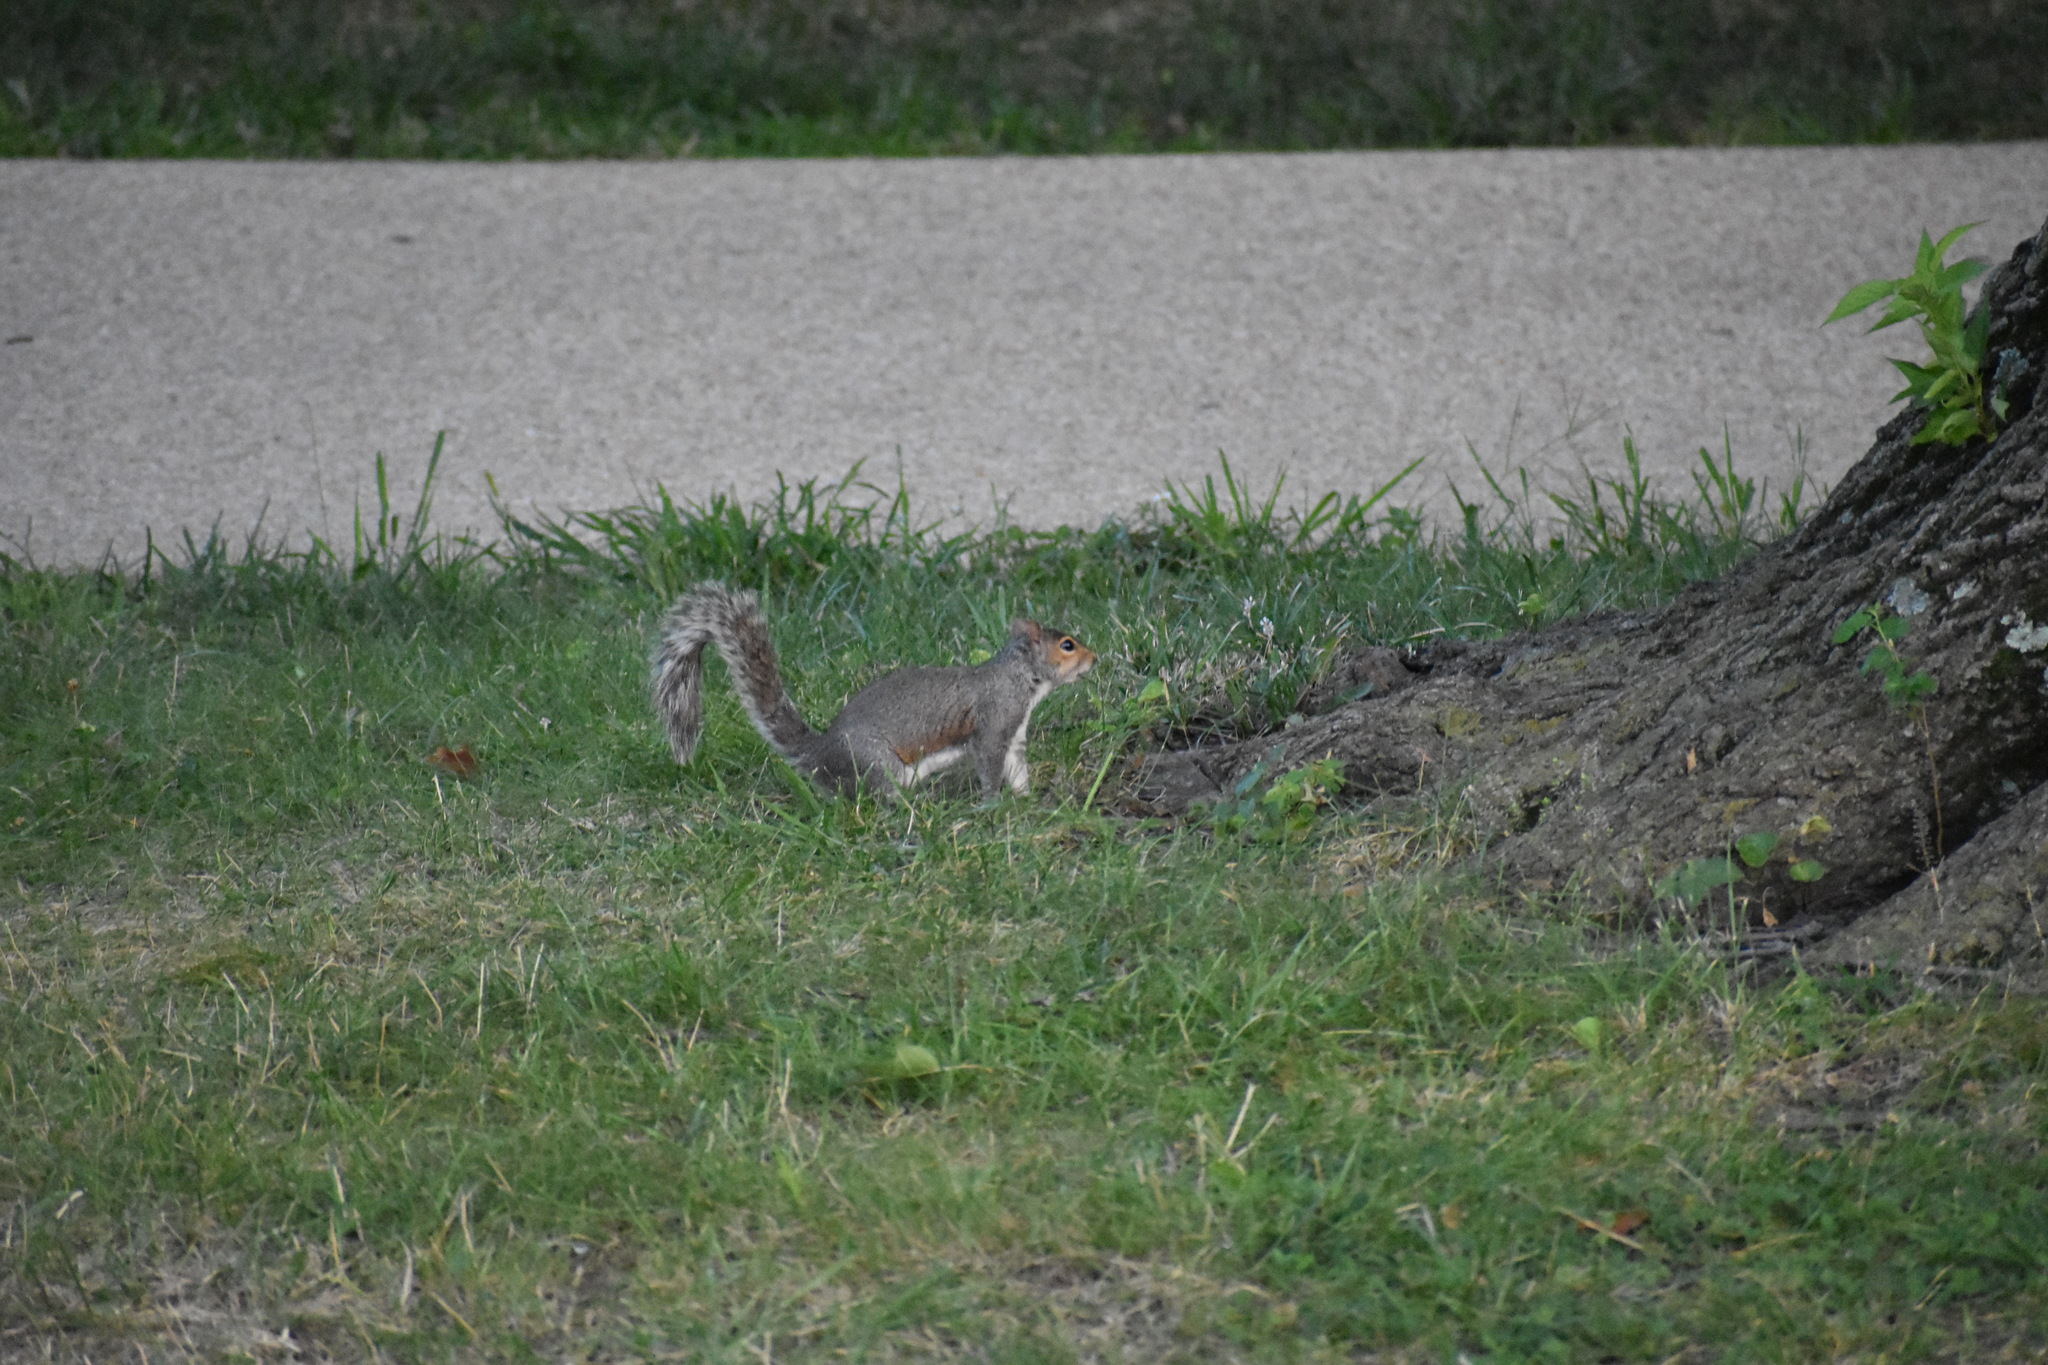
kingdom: Animalia
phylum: Chordata
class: Mammalia
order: Rodentia
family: Sciuridae
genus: Sciurus
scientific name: Sciurus carolinensis
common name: Eastern gray squirrel
